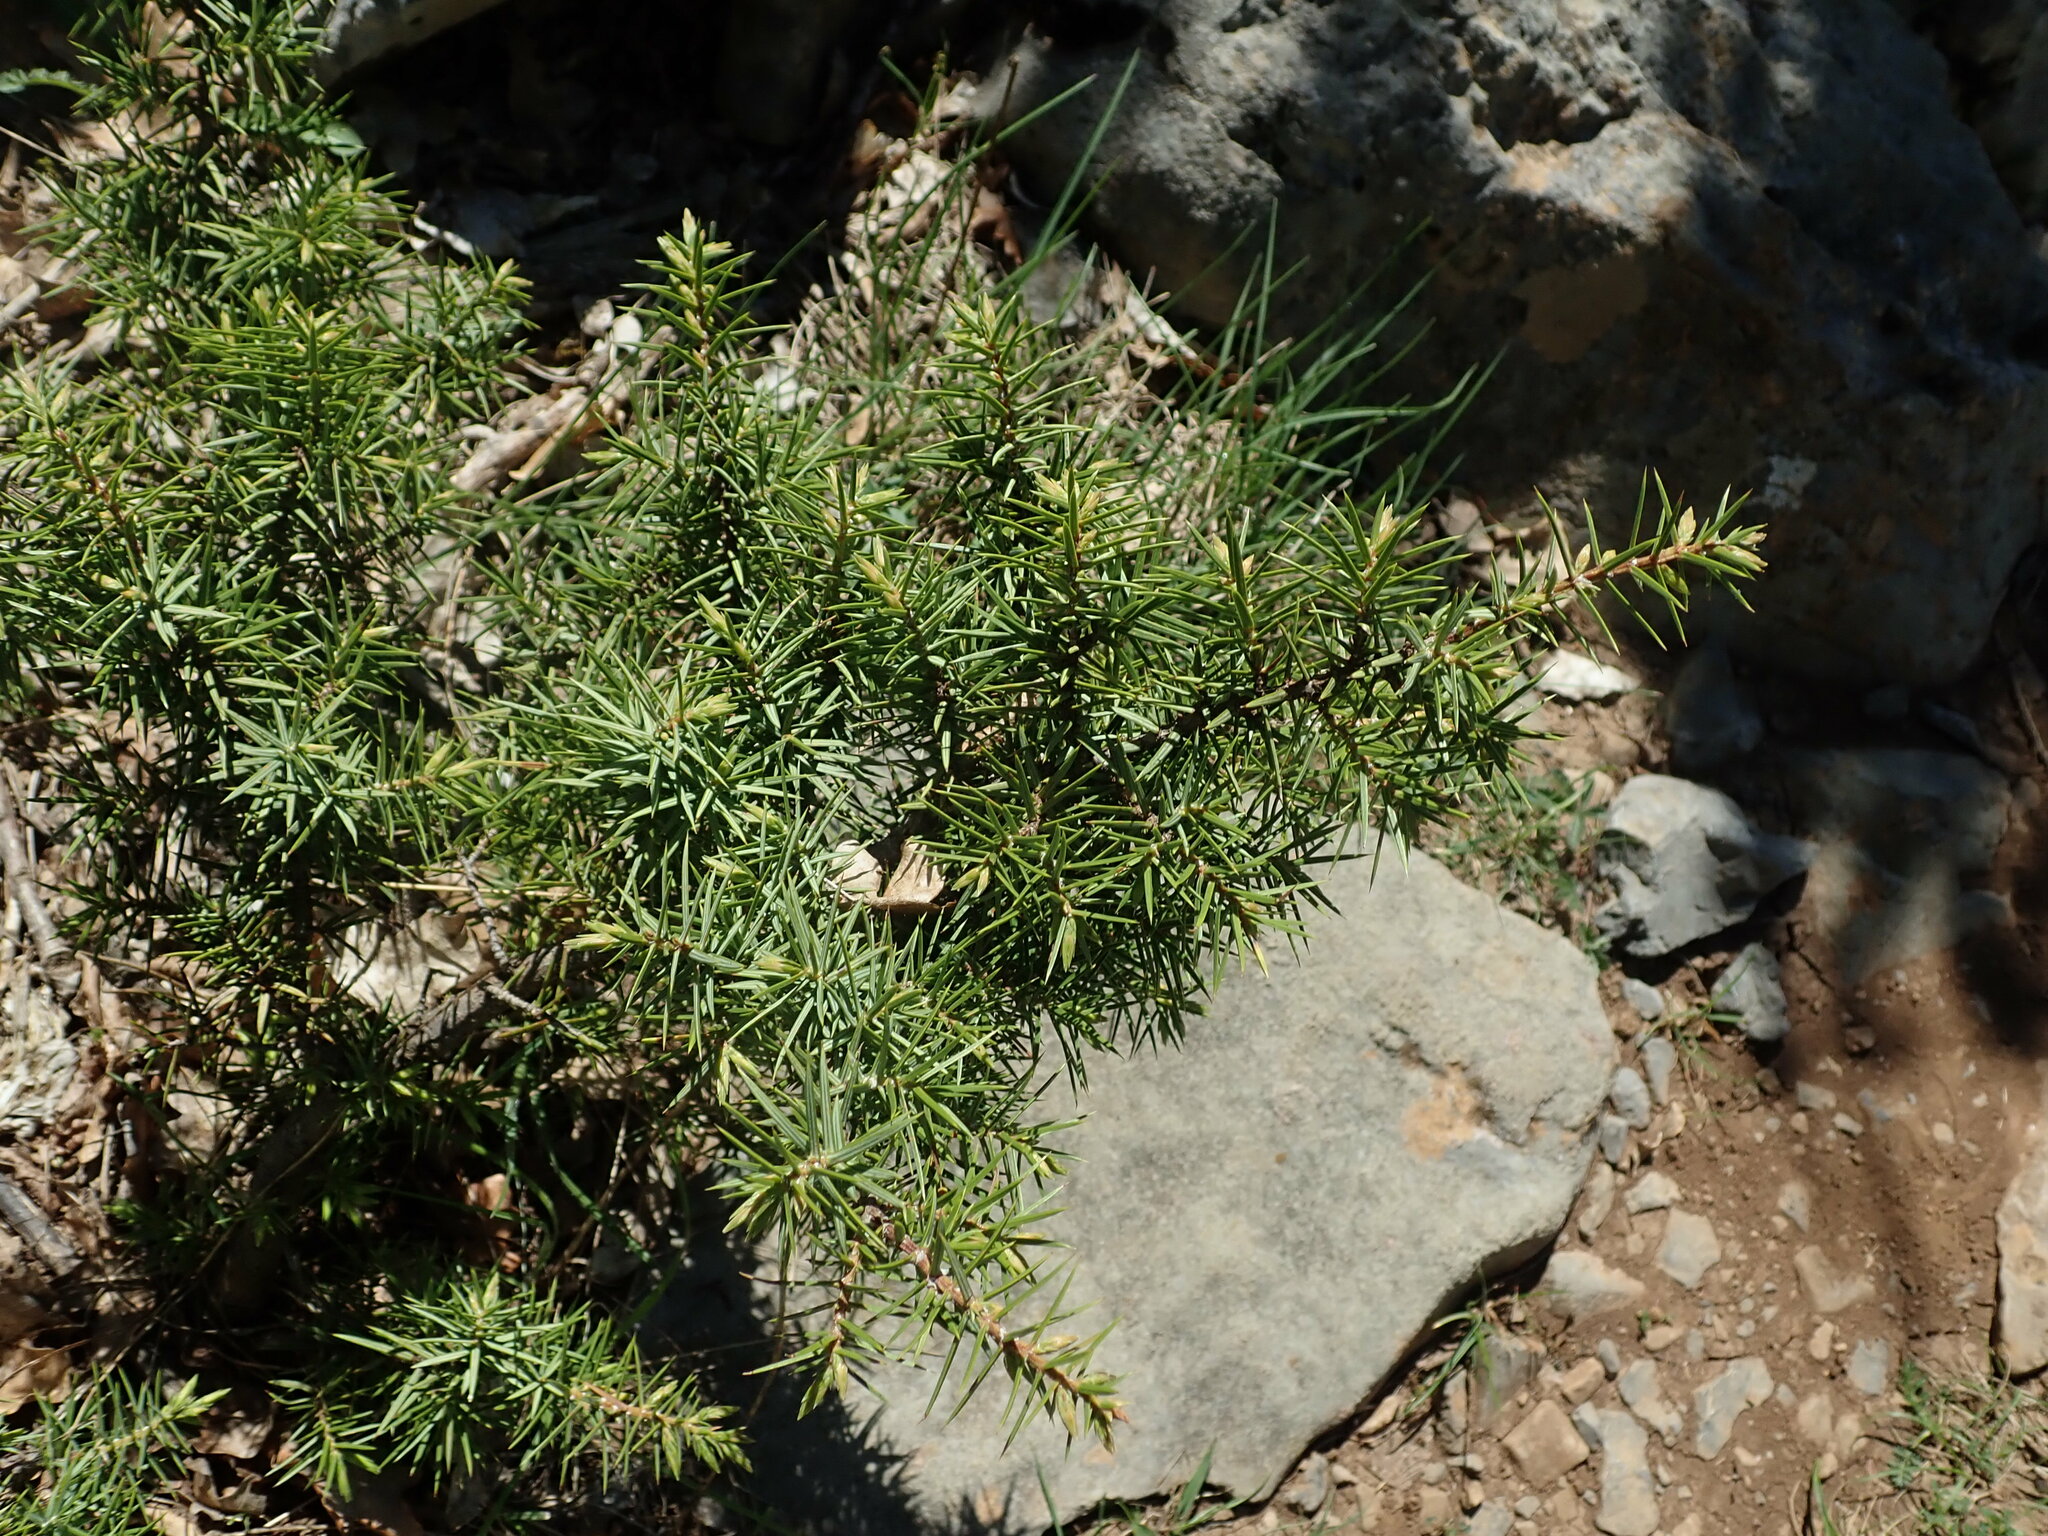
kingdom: Plantae
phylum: Tracheophyta
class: Pinopsida
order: Pinales
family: Cupressaceae
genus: Juniperus
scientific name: Juniperus oxycedrus
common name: Prickly juniper
